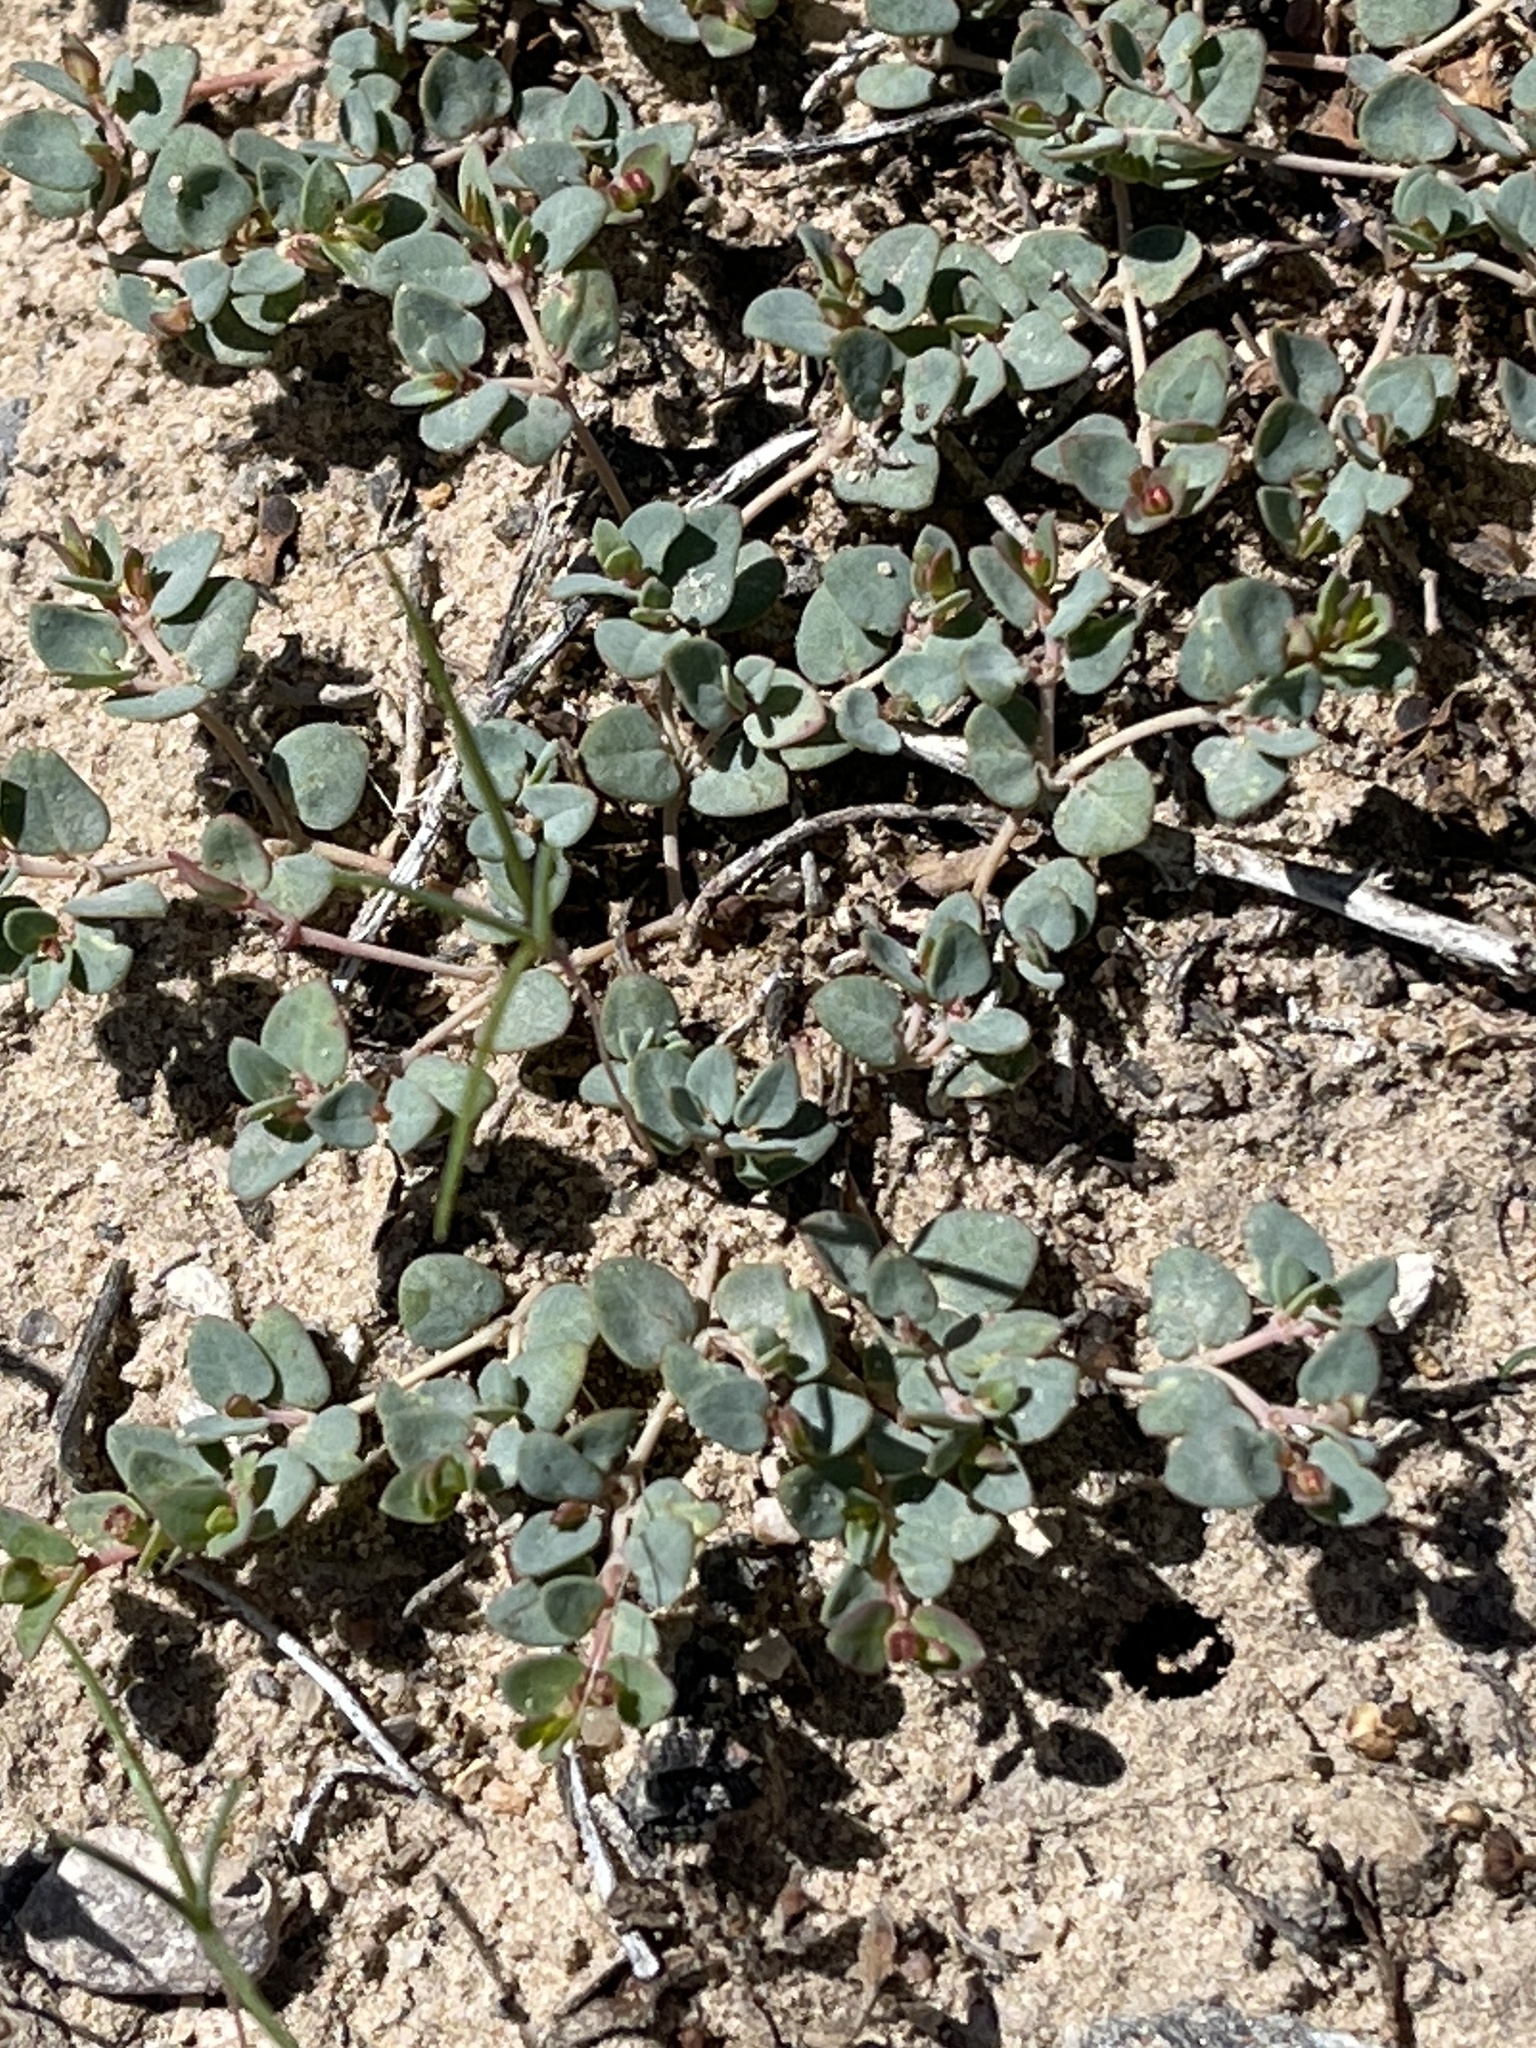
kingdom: Plantae
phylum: Tracheophyta
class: Magnoliopsida
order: Malpighiales
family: Euphorbiaceae
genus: Euphorbia
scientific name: Euphorbia fendleri
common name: Fendler's euphorbia
